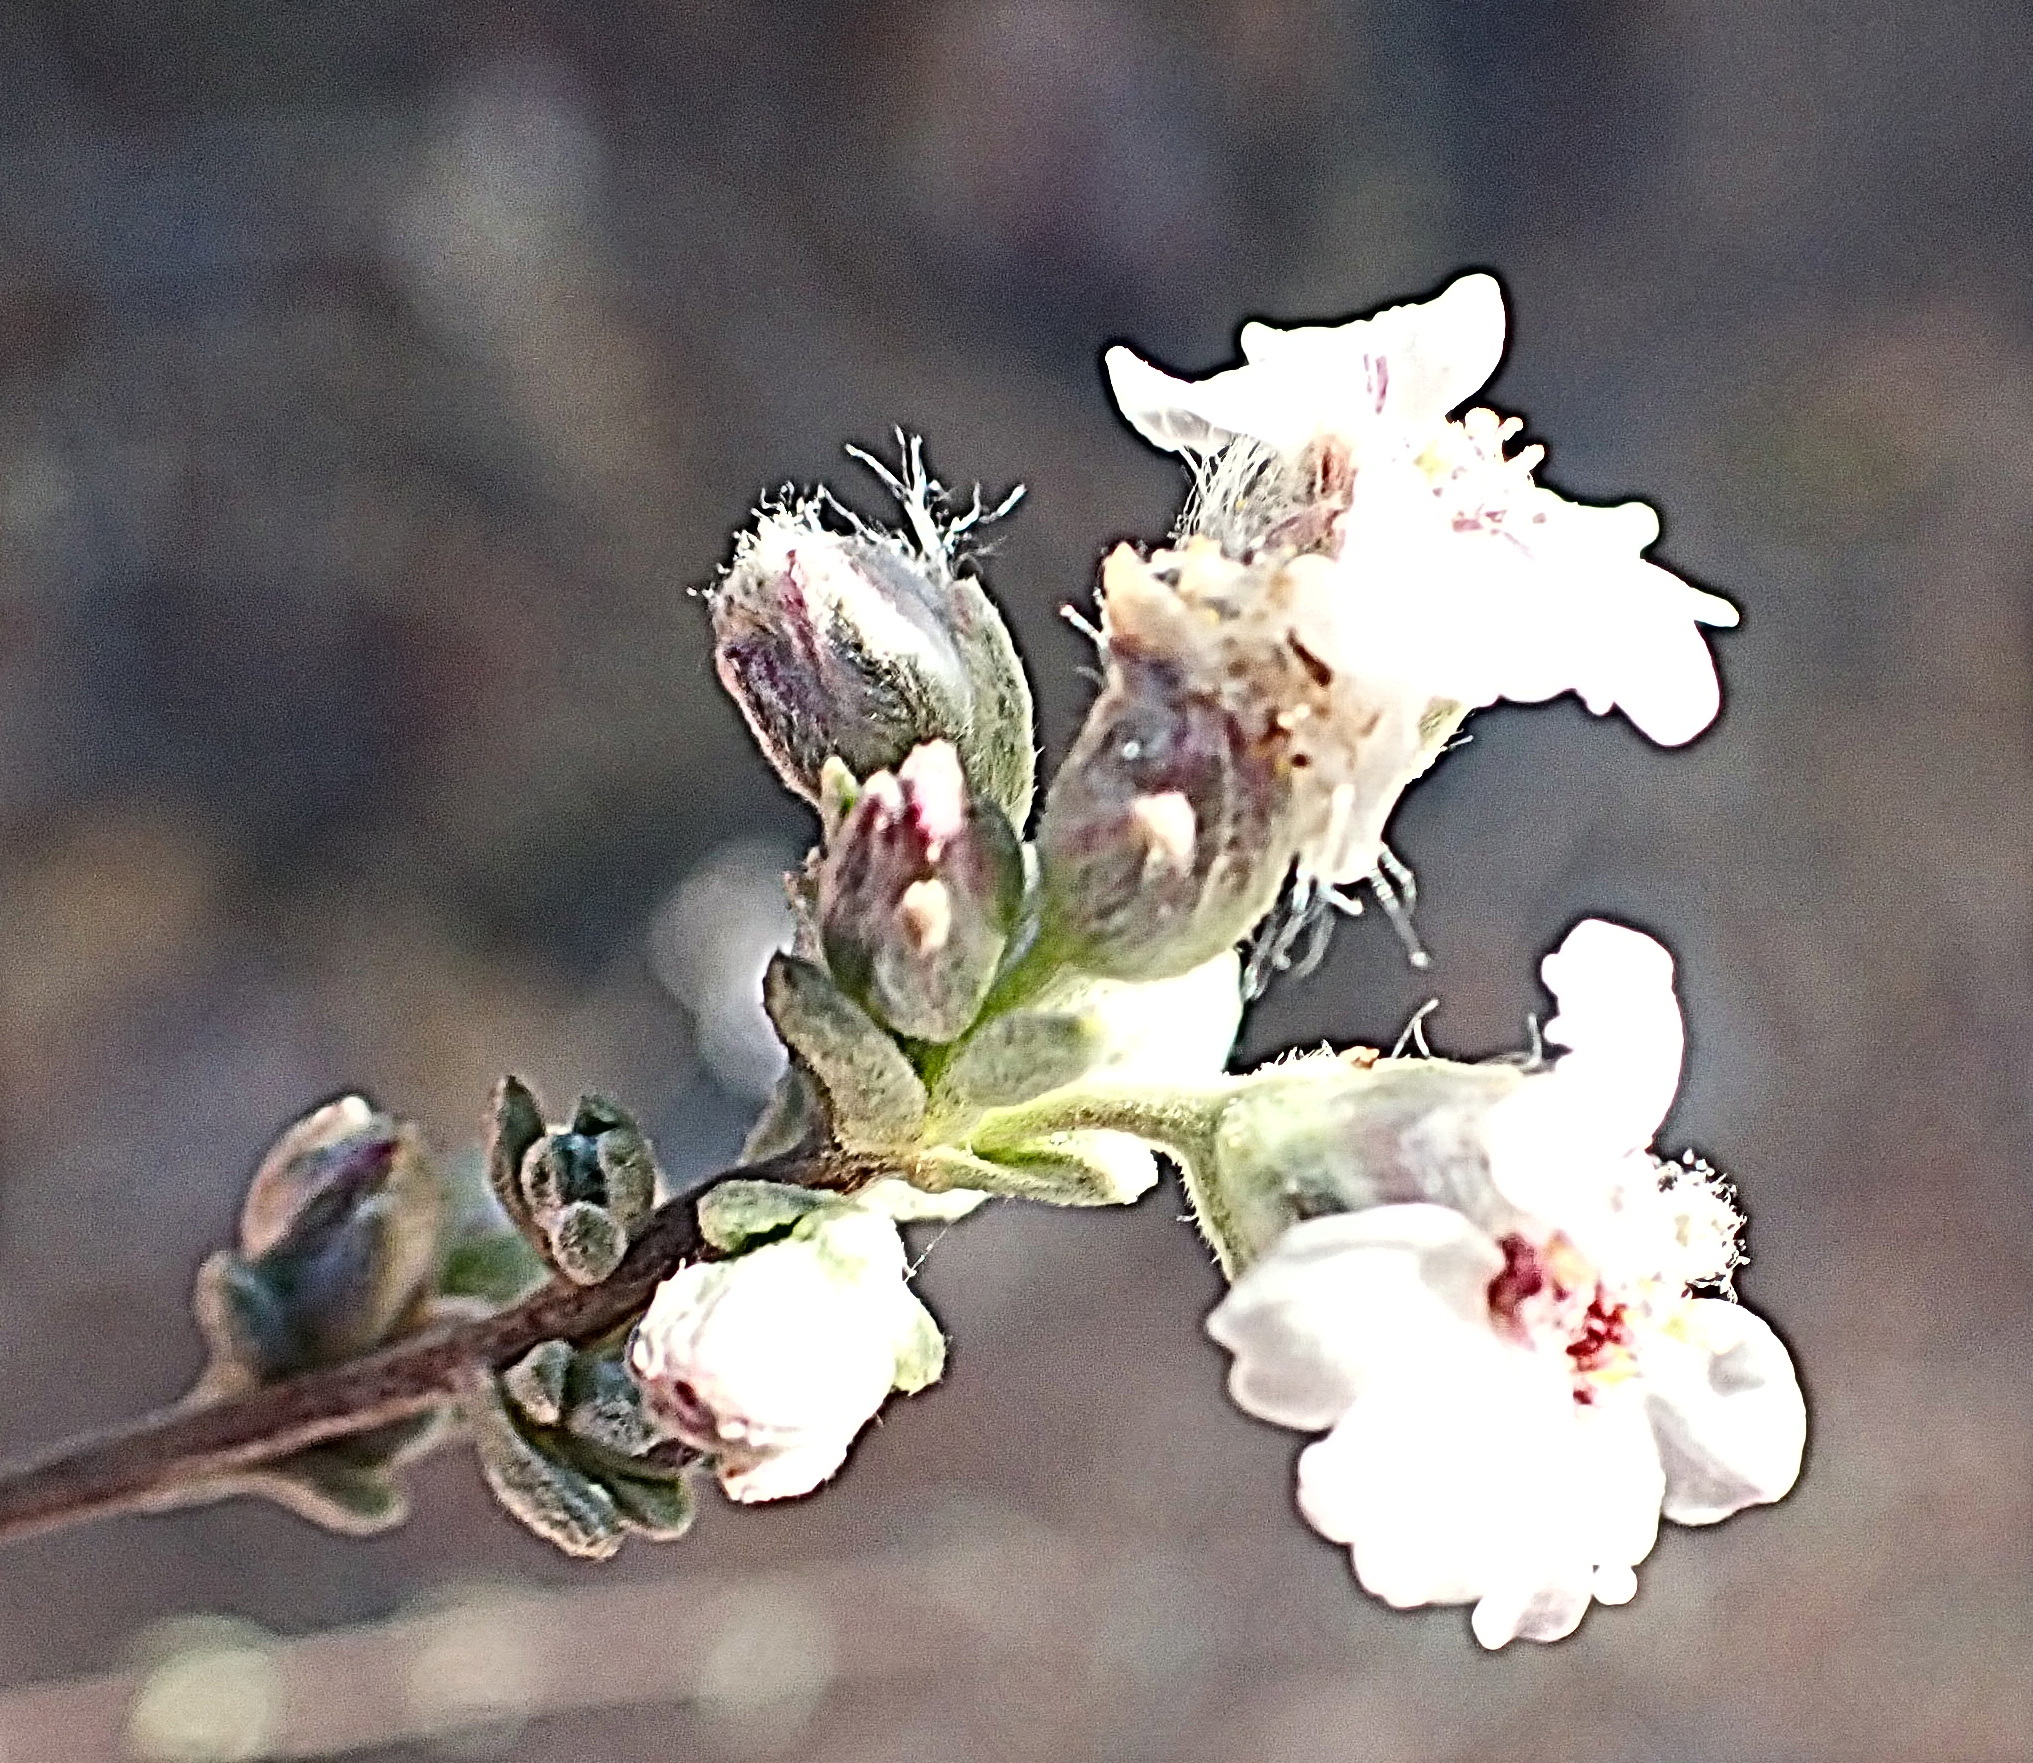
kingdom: Plantae
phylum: Tracheophyta
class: Magnoliopsida
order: Asterales
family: Asteraceae
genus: Eriocephalus
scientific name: Eriocephalus africanus
